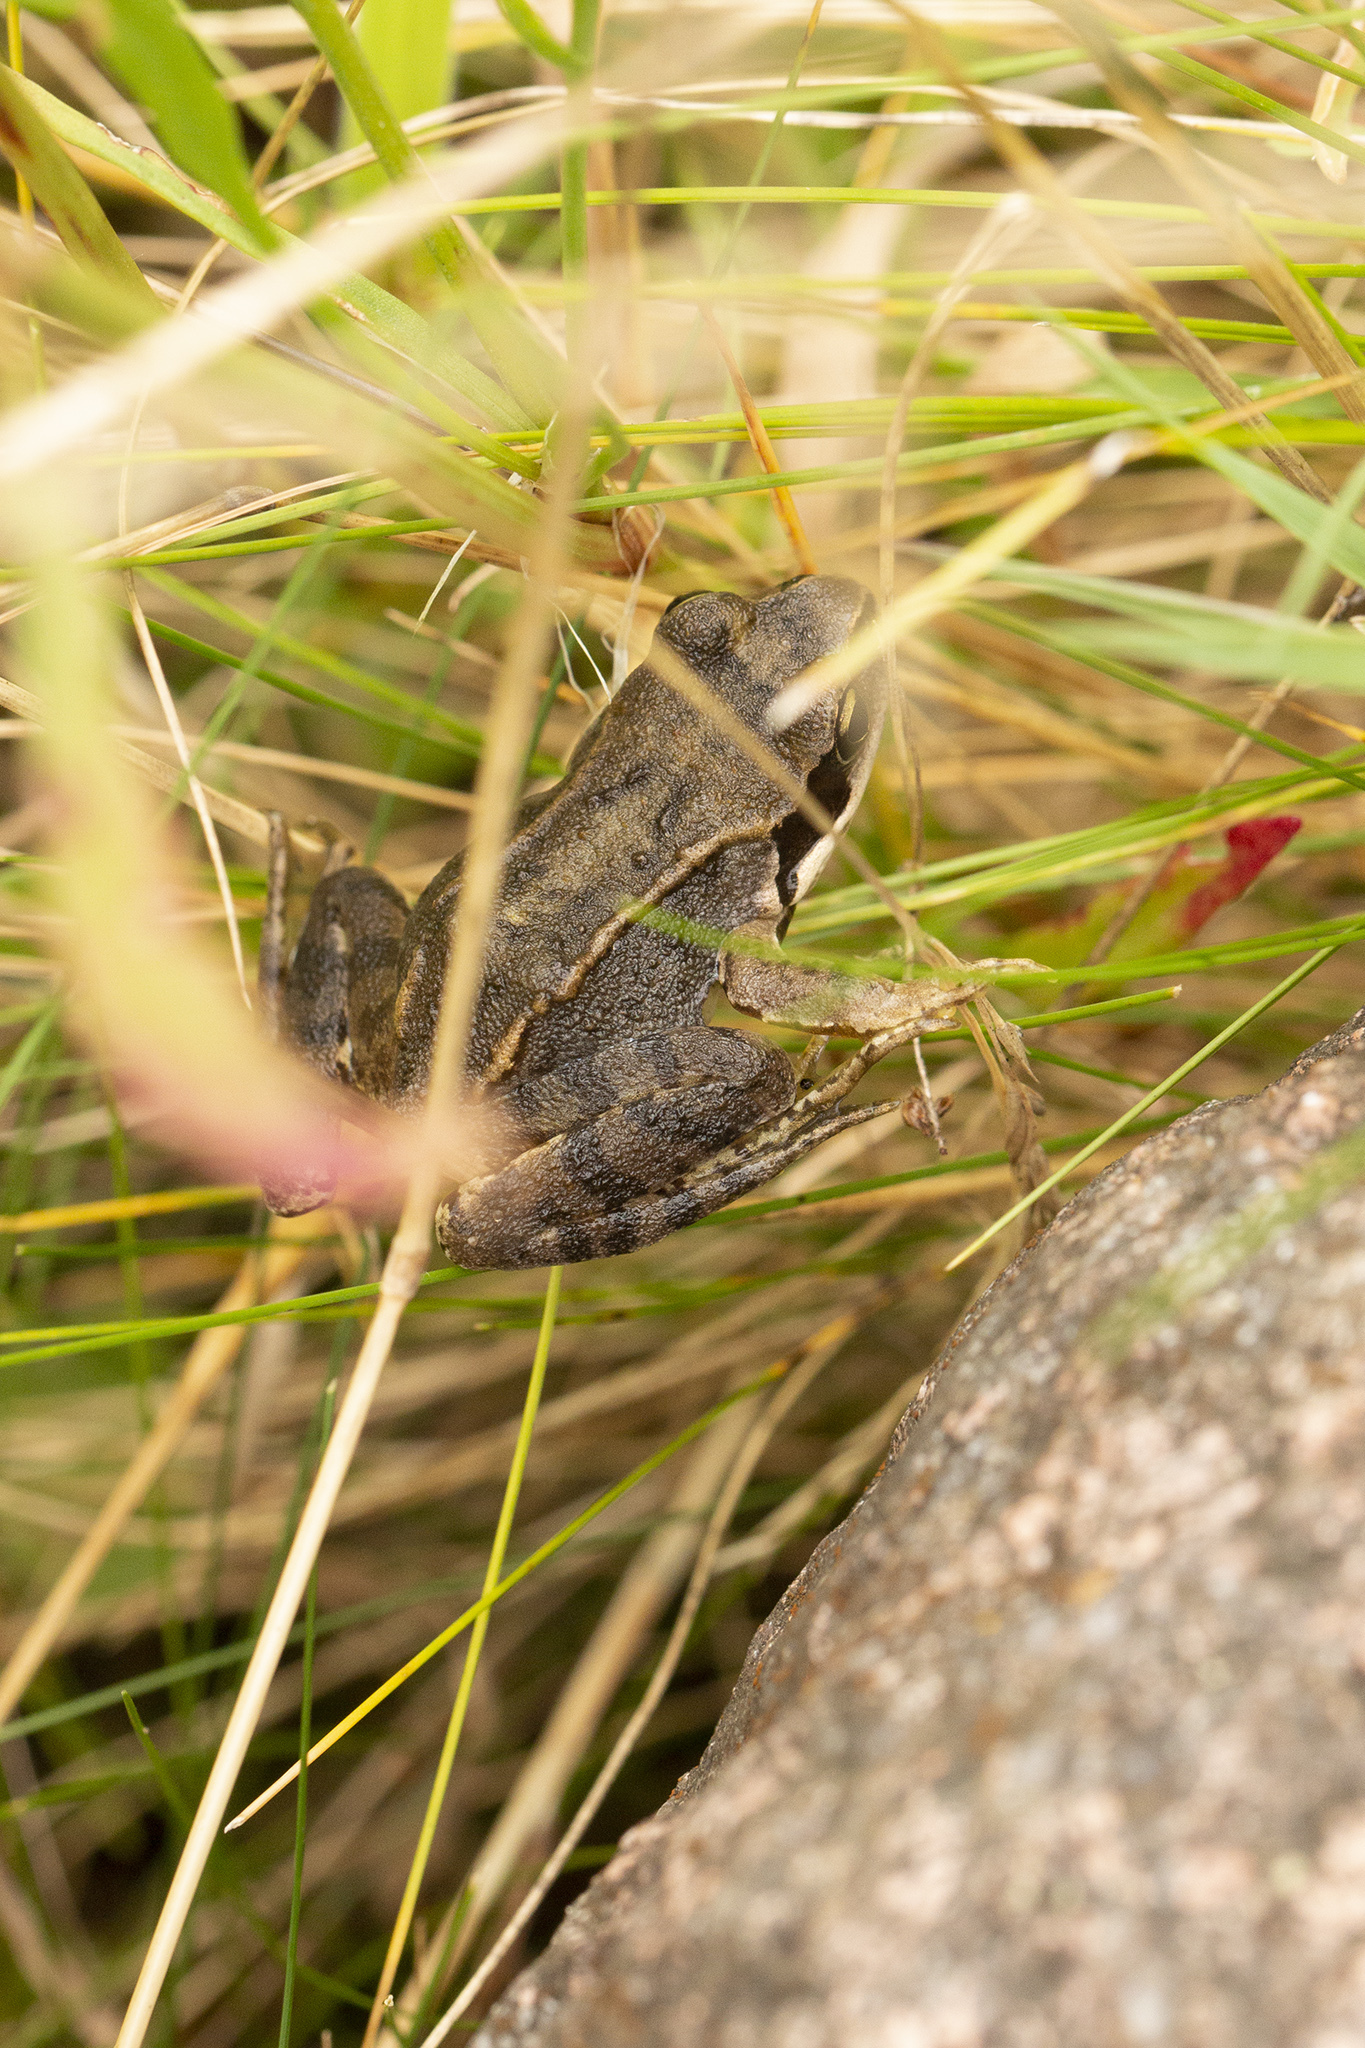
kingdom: Animalia
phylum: Chordata
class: Amphibia
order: Anura
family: Ranidae
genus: Rana
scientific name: Rana temporaria
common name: Common frog
